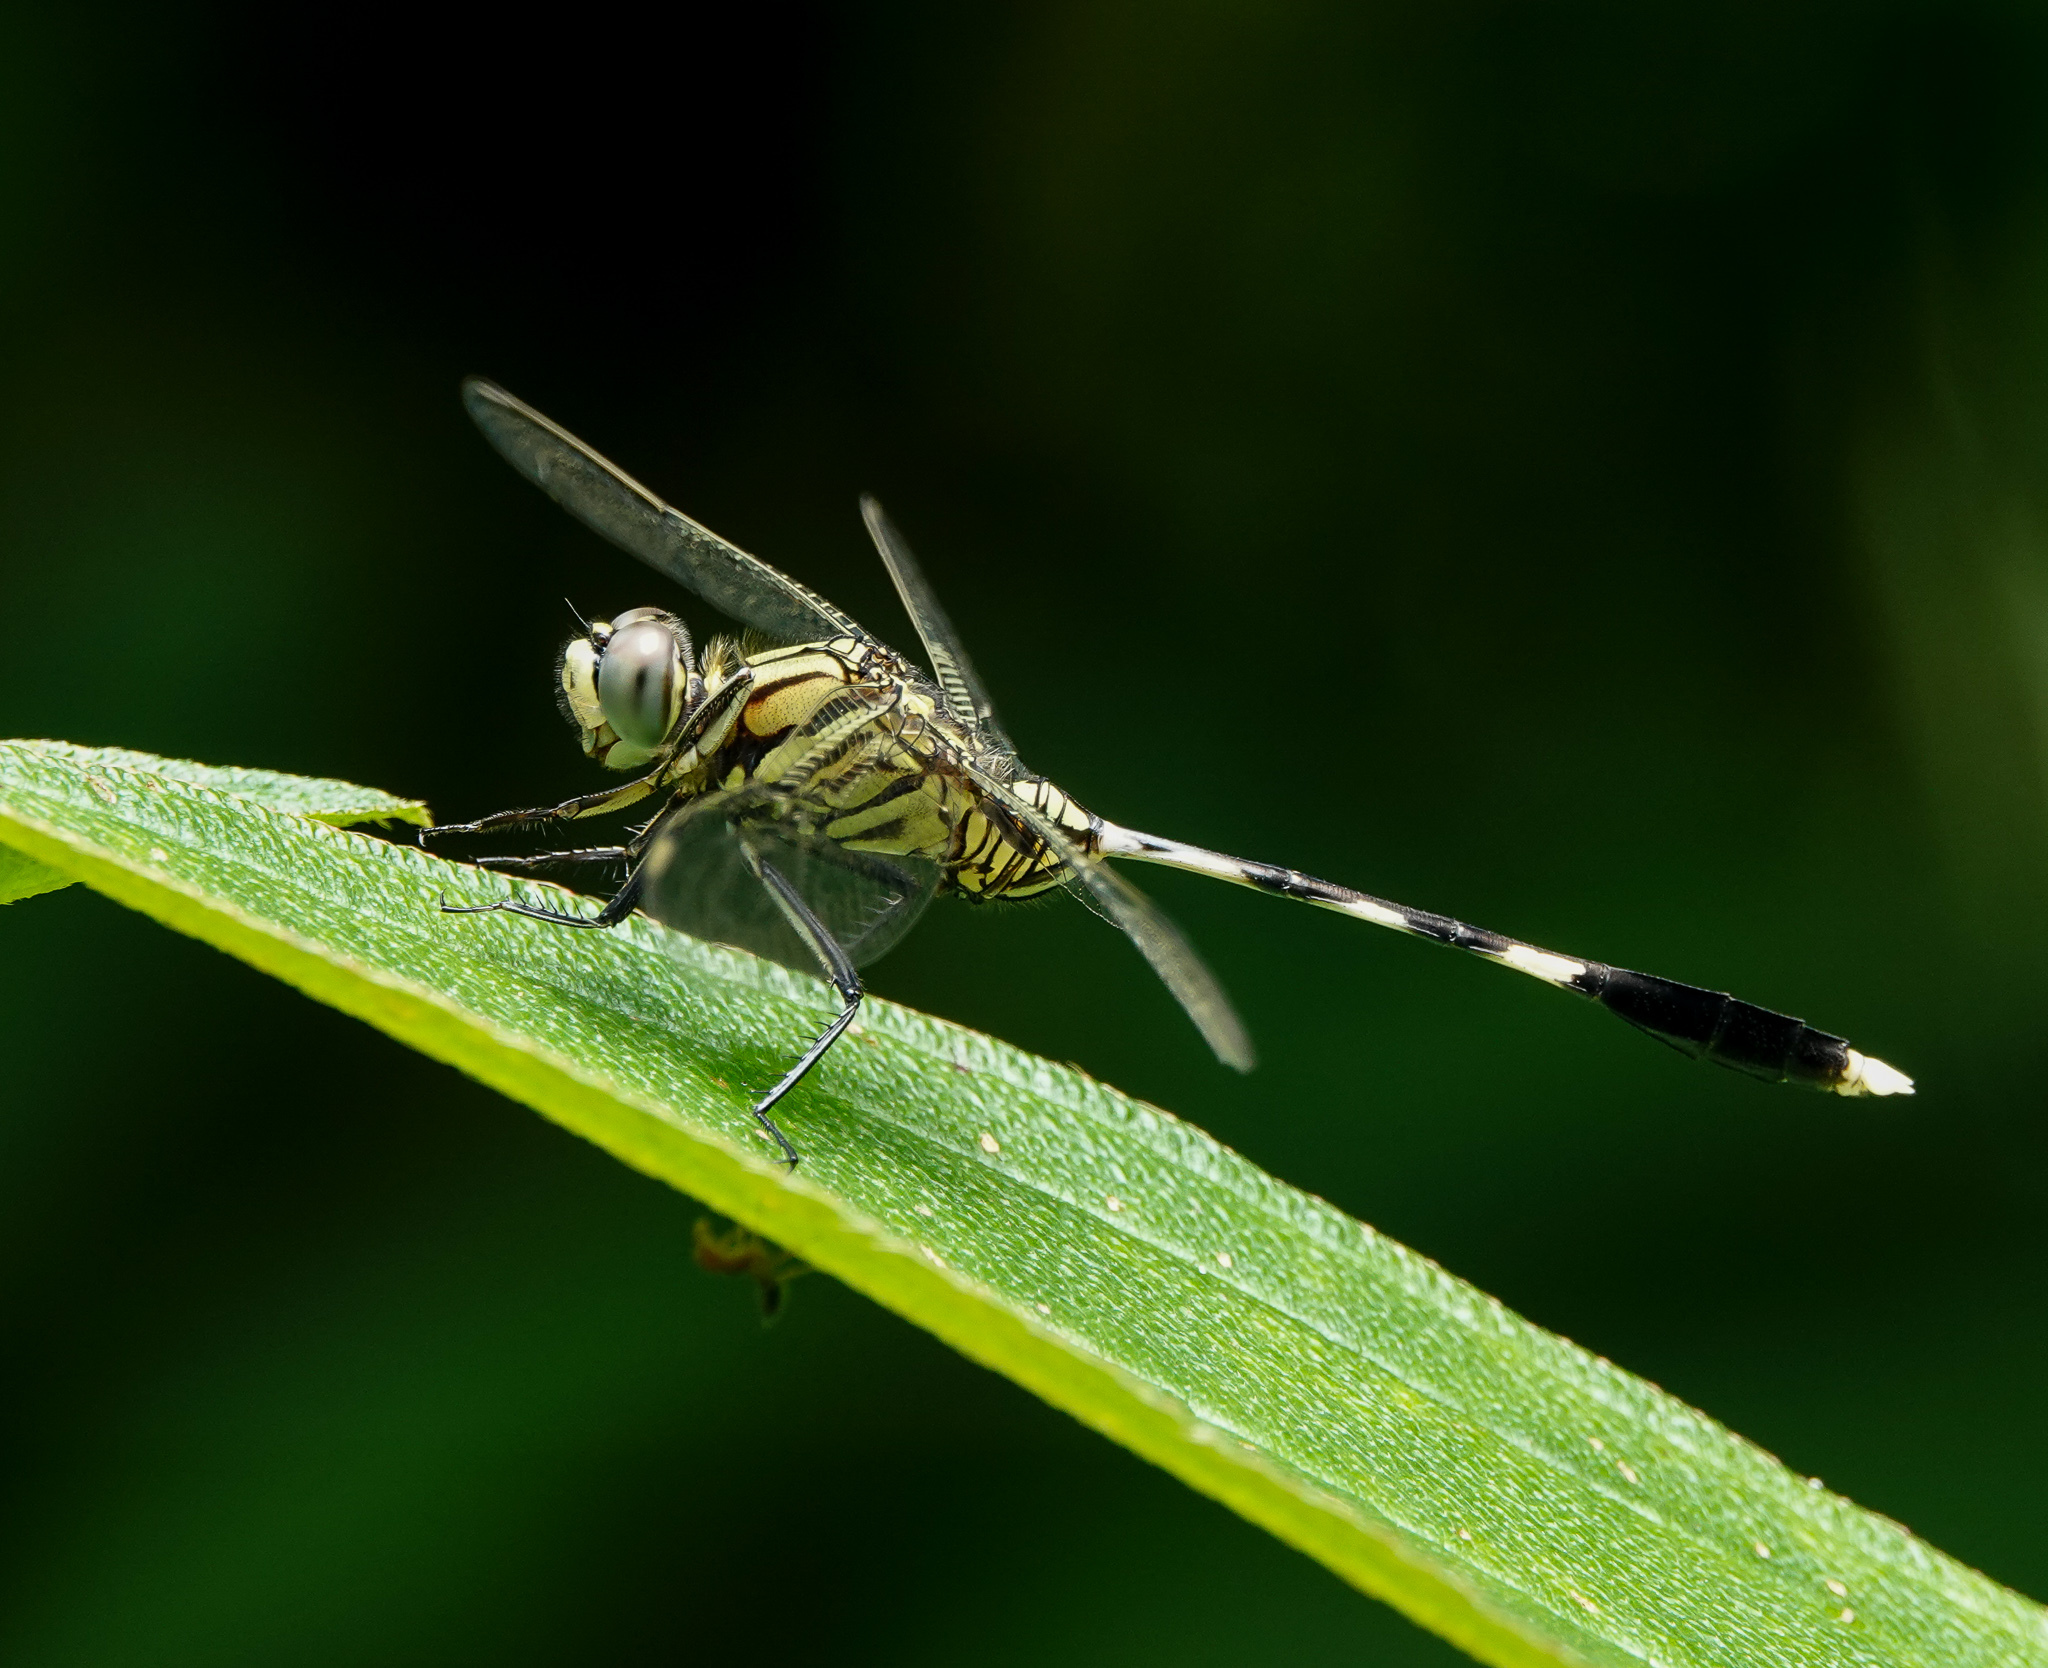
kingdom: Animalia
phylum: Arthropoda
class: Insecta
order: Odonata
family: Libellulidae
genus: Orthetrum
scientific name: Orthetrum sabina
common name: Slender skimmer
